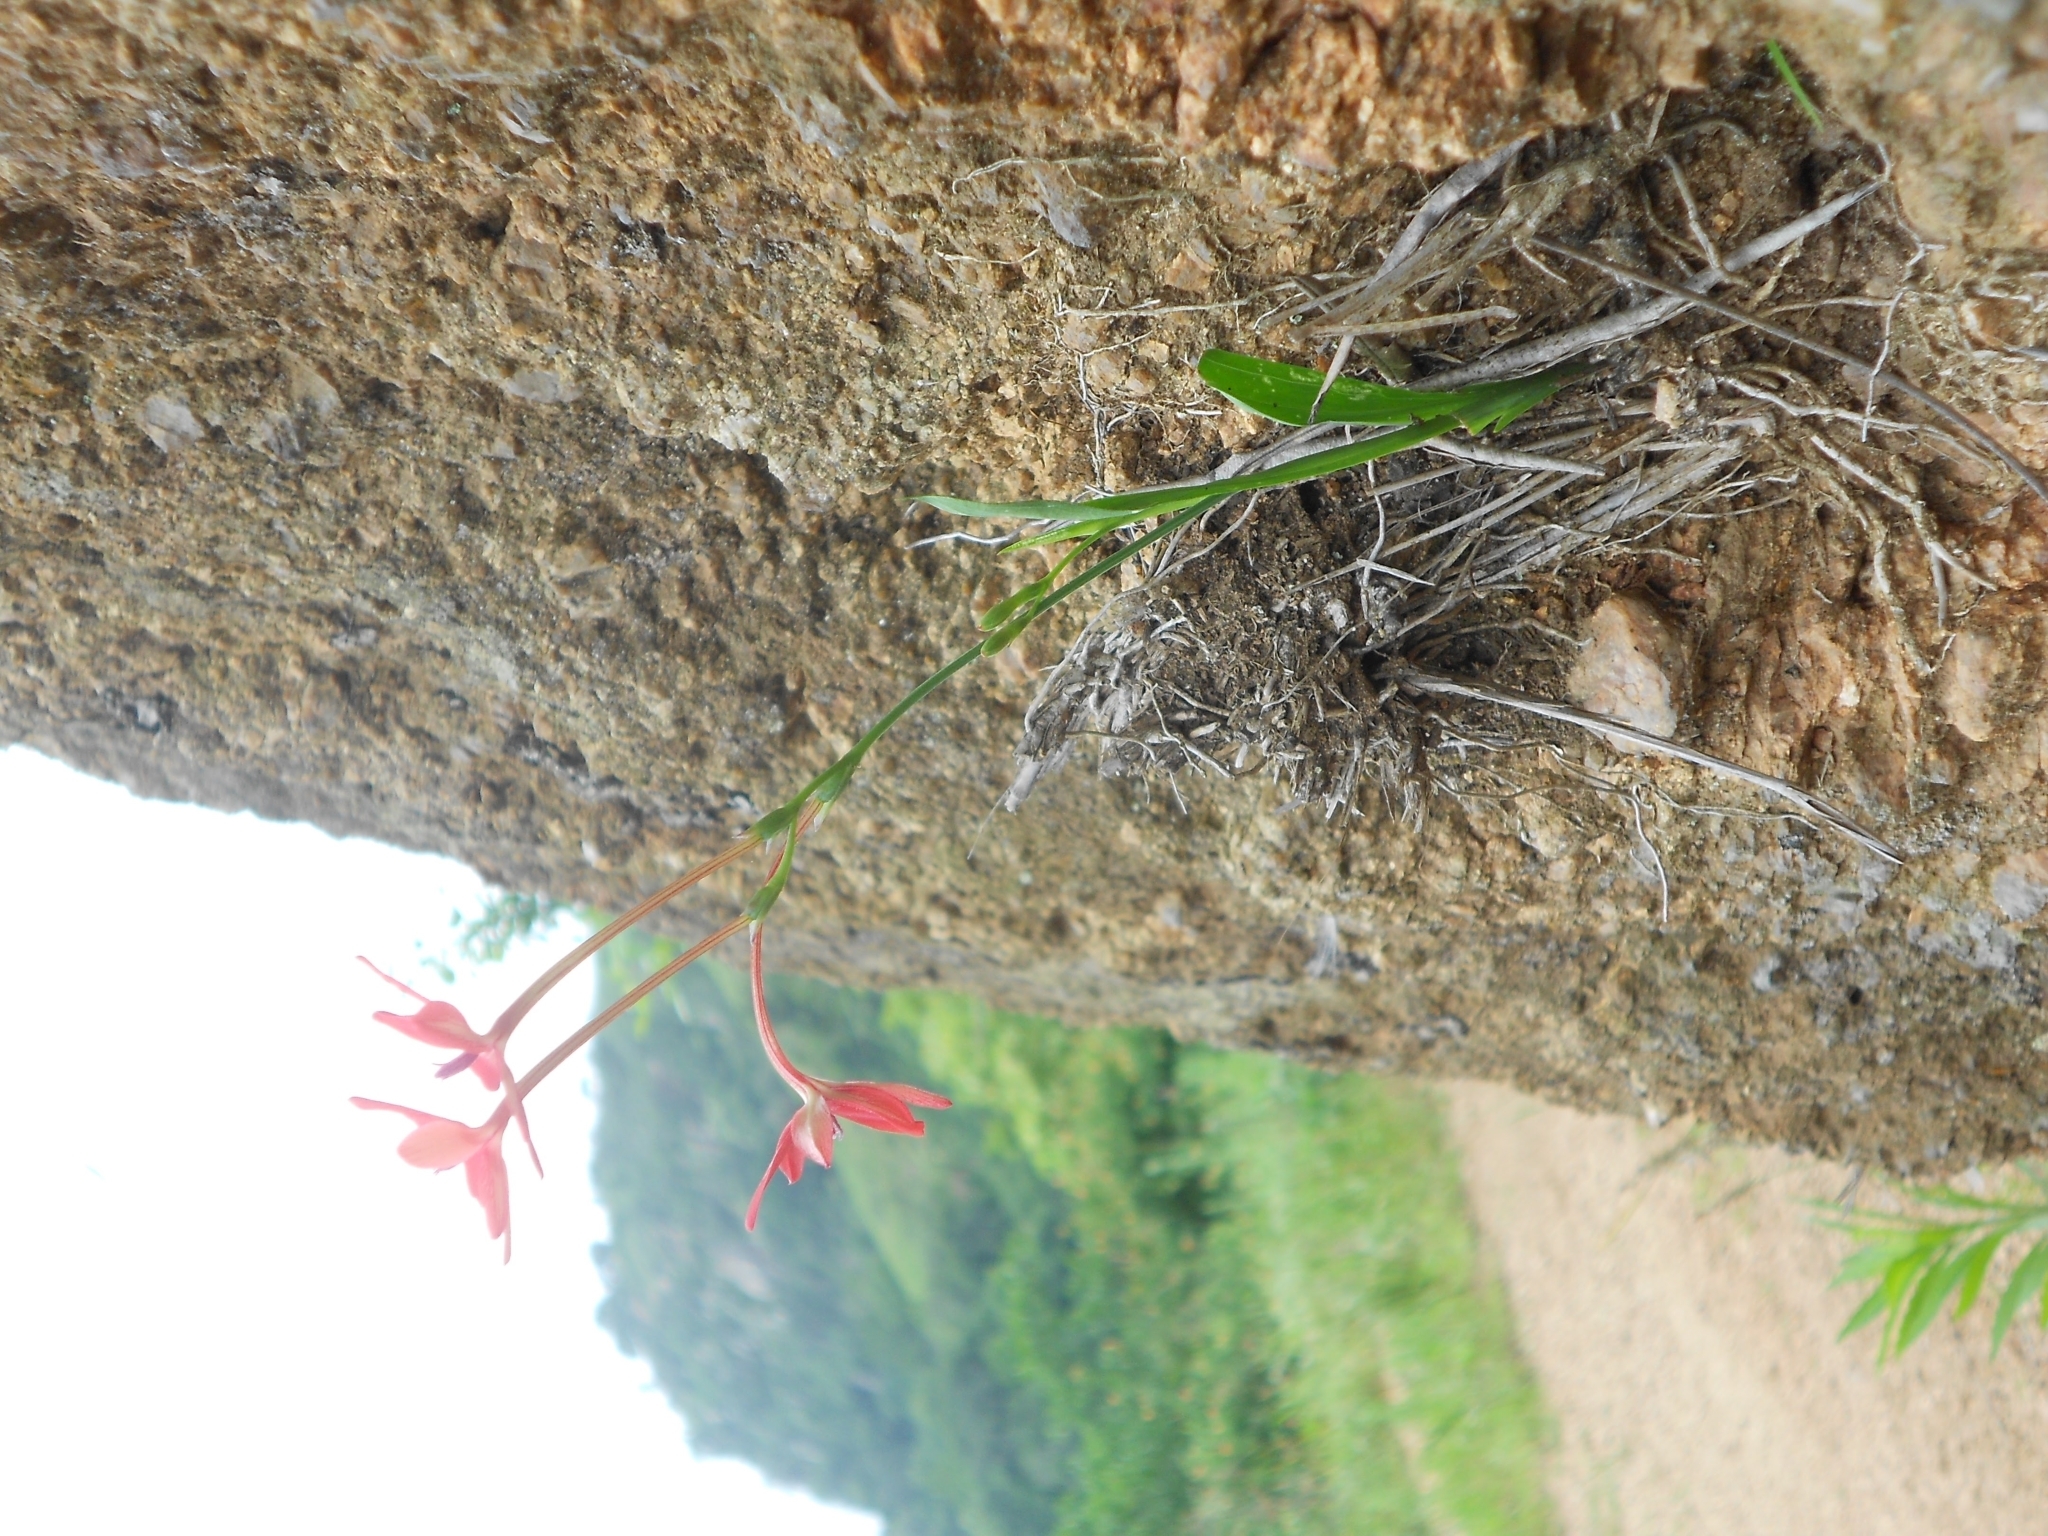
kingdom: Plantae
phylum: Tracheophyta
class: Liliopsida
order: Asparagales
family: Iridaceae
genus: Freesia
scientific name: Freesia laxa
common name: False freesia
